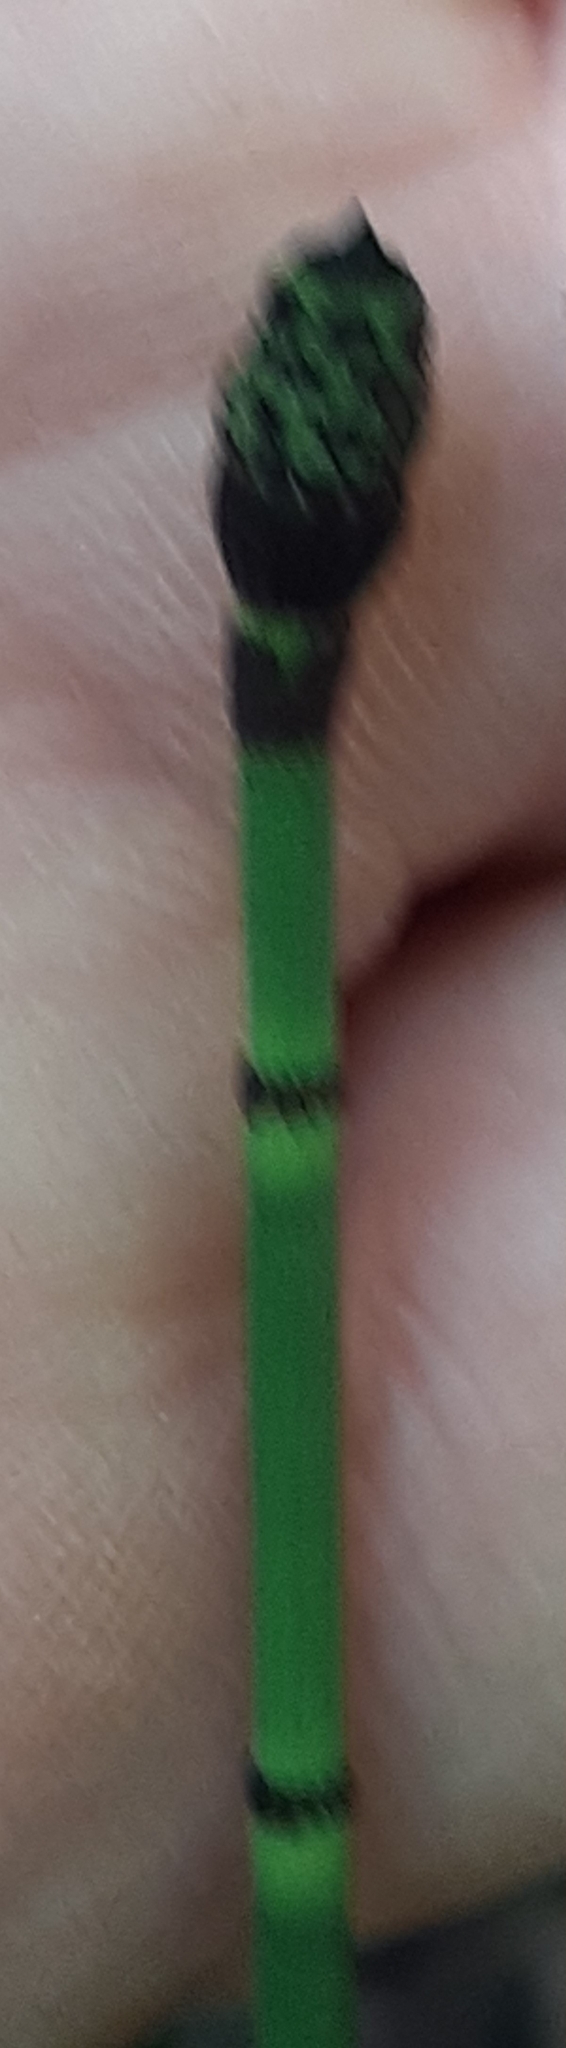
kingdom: Plantae
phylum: Tracheophyta
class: Polypodiopsida
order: Equisetales
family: Equisetaceae
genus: Equisetum
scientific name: Equisetum hyemale
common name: Rough horsetail
